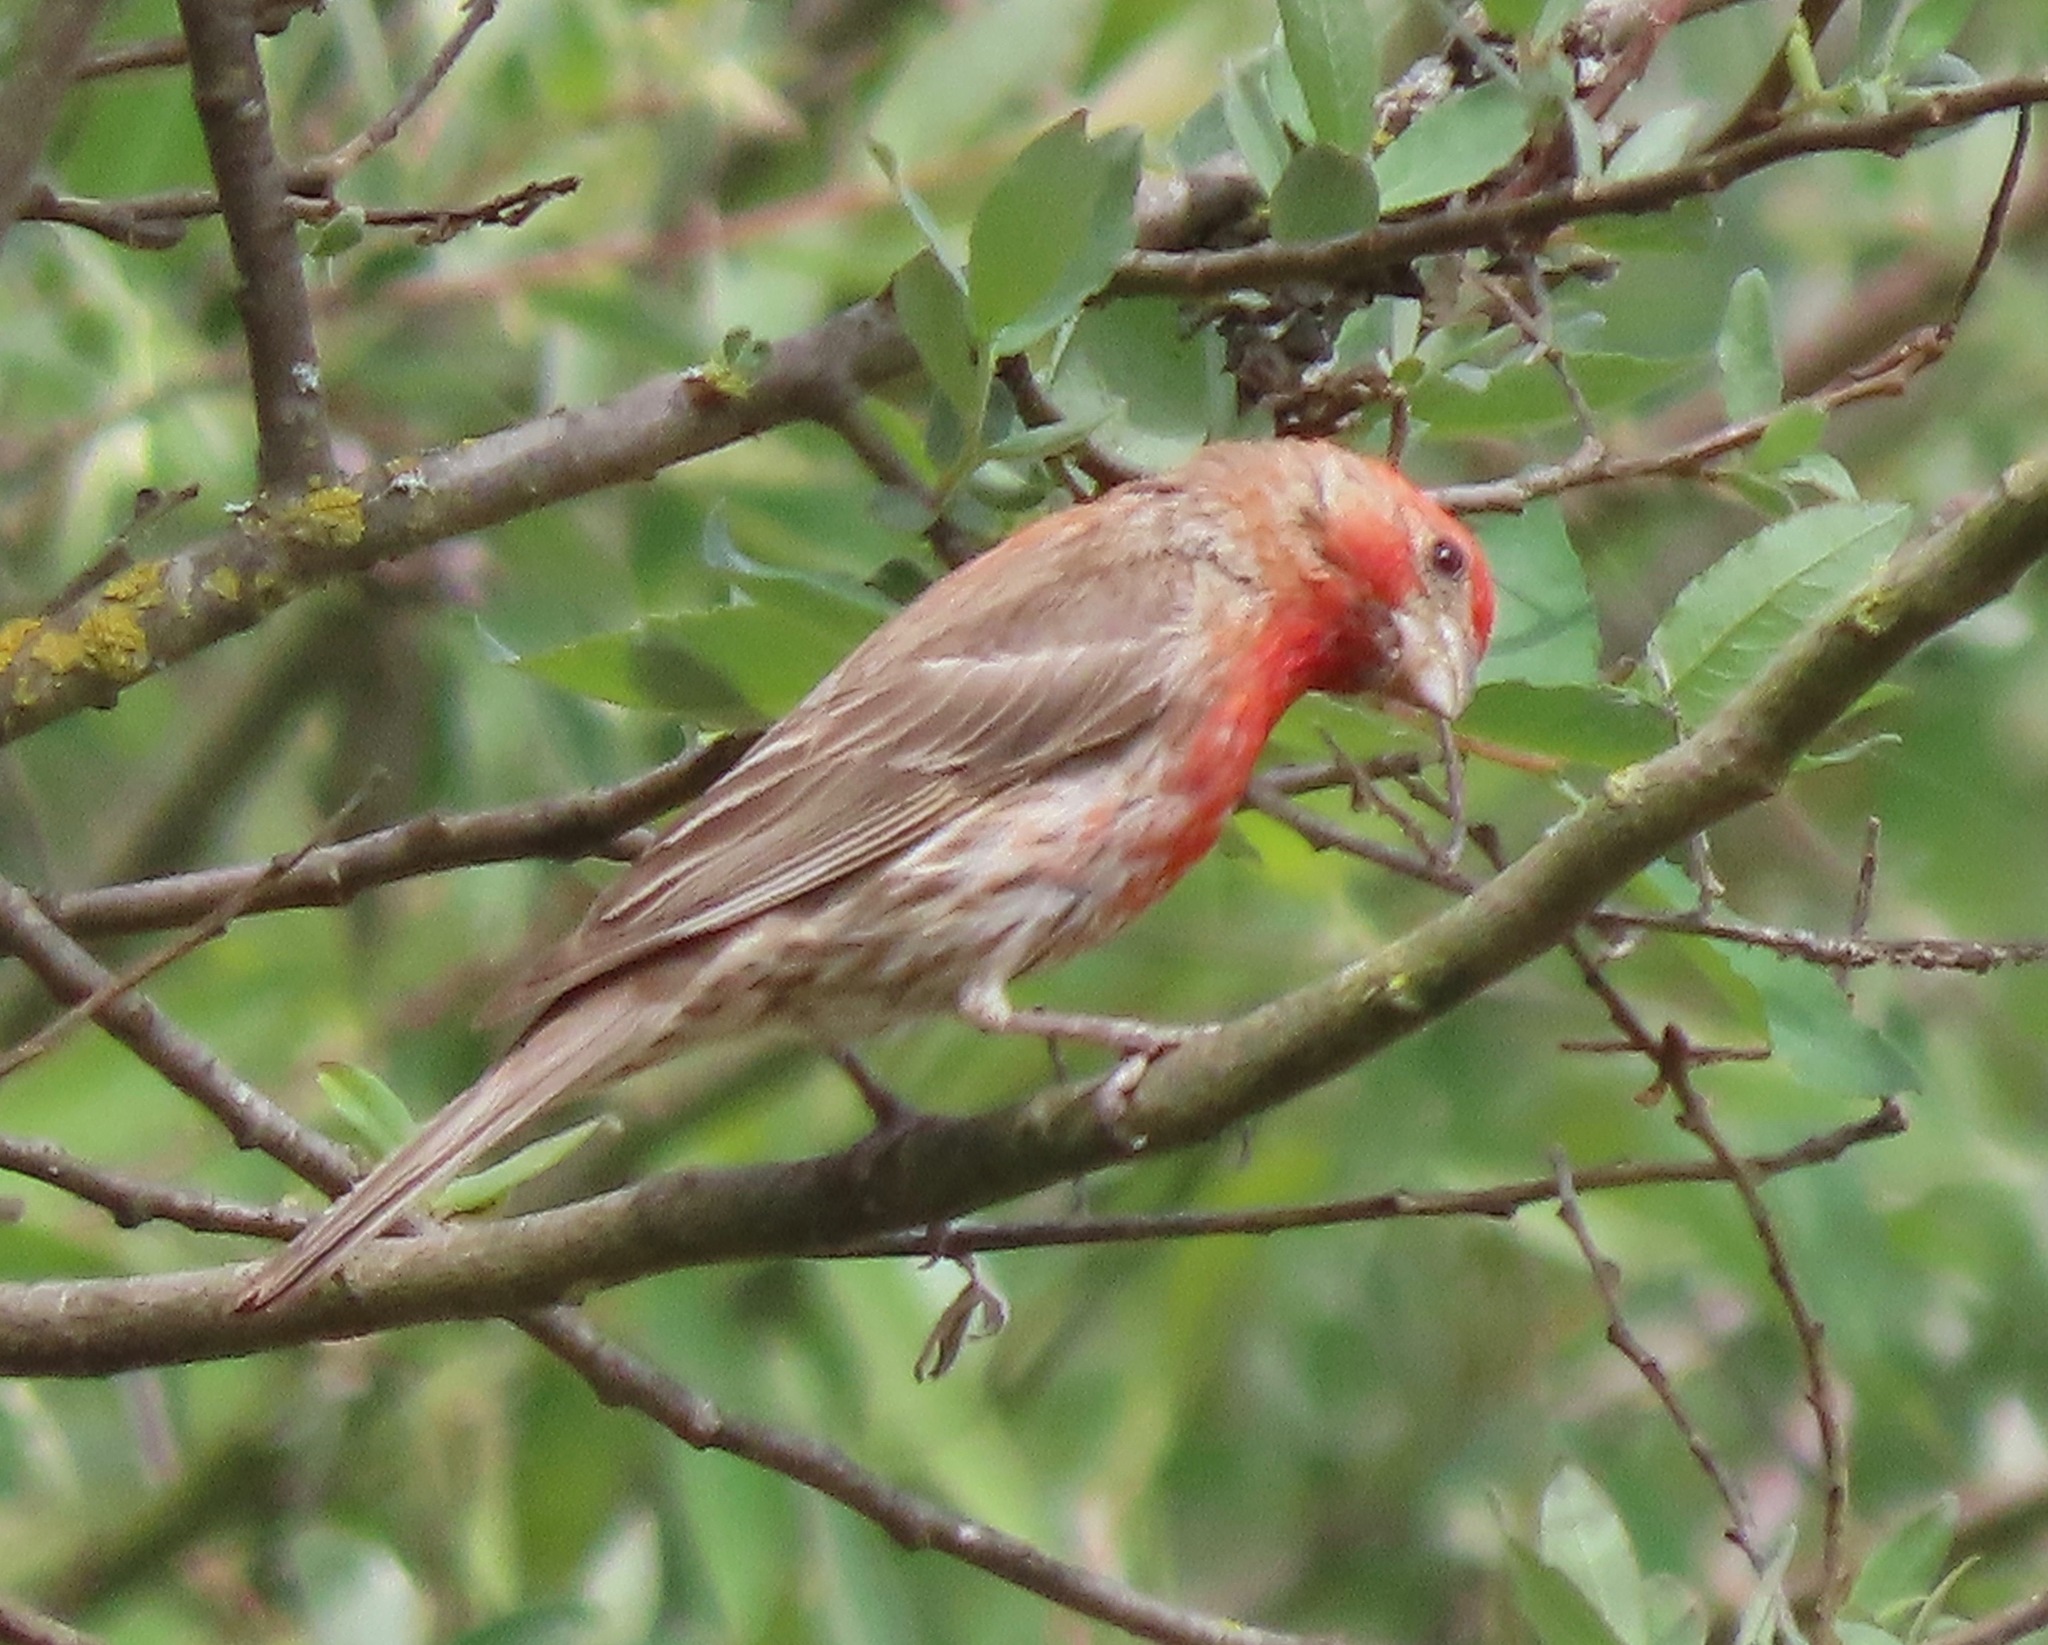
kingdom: Animalia
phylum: Chordata
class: Aves
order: Passeriformes
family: Fringillidae
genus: Haemorhous
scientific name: Haemorhous mexicanus
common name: House finch
